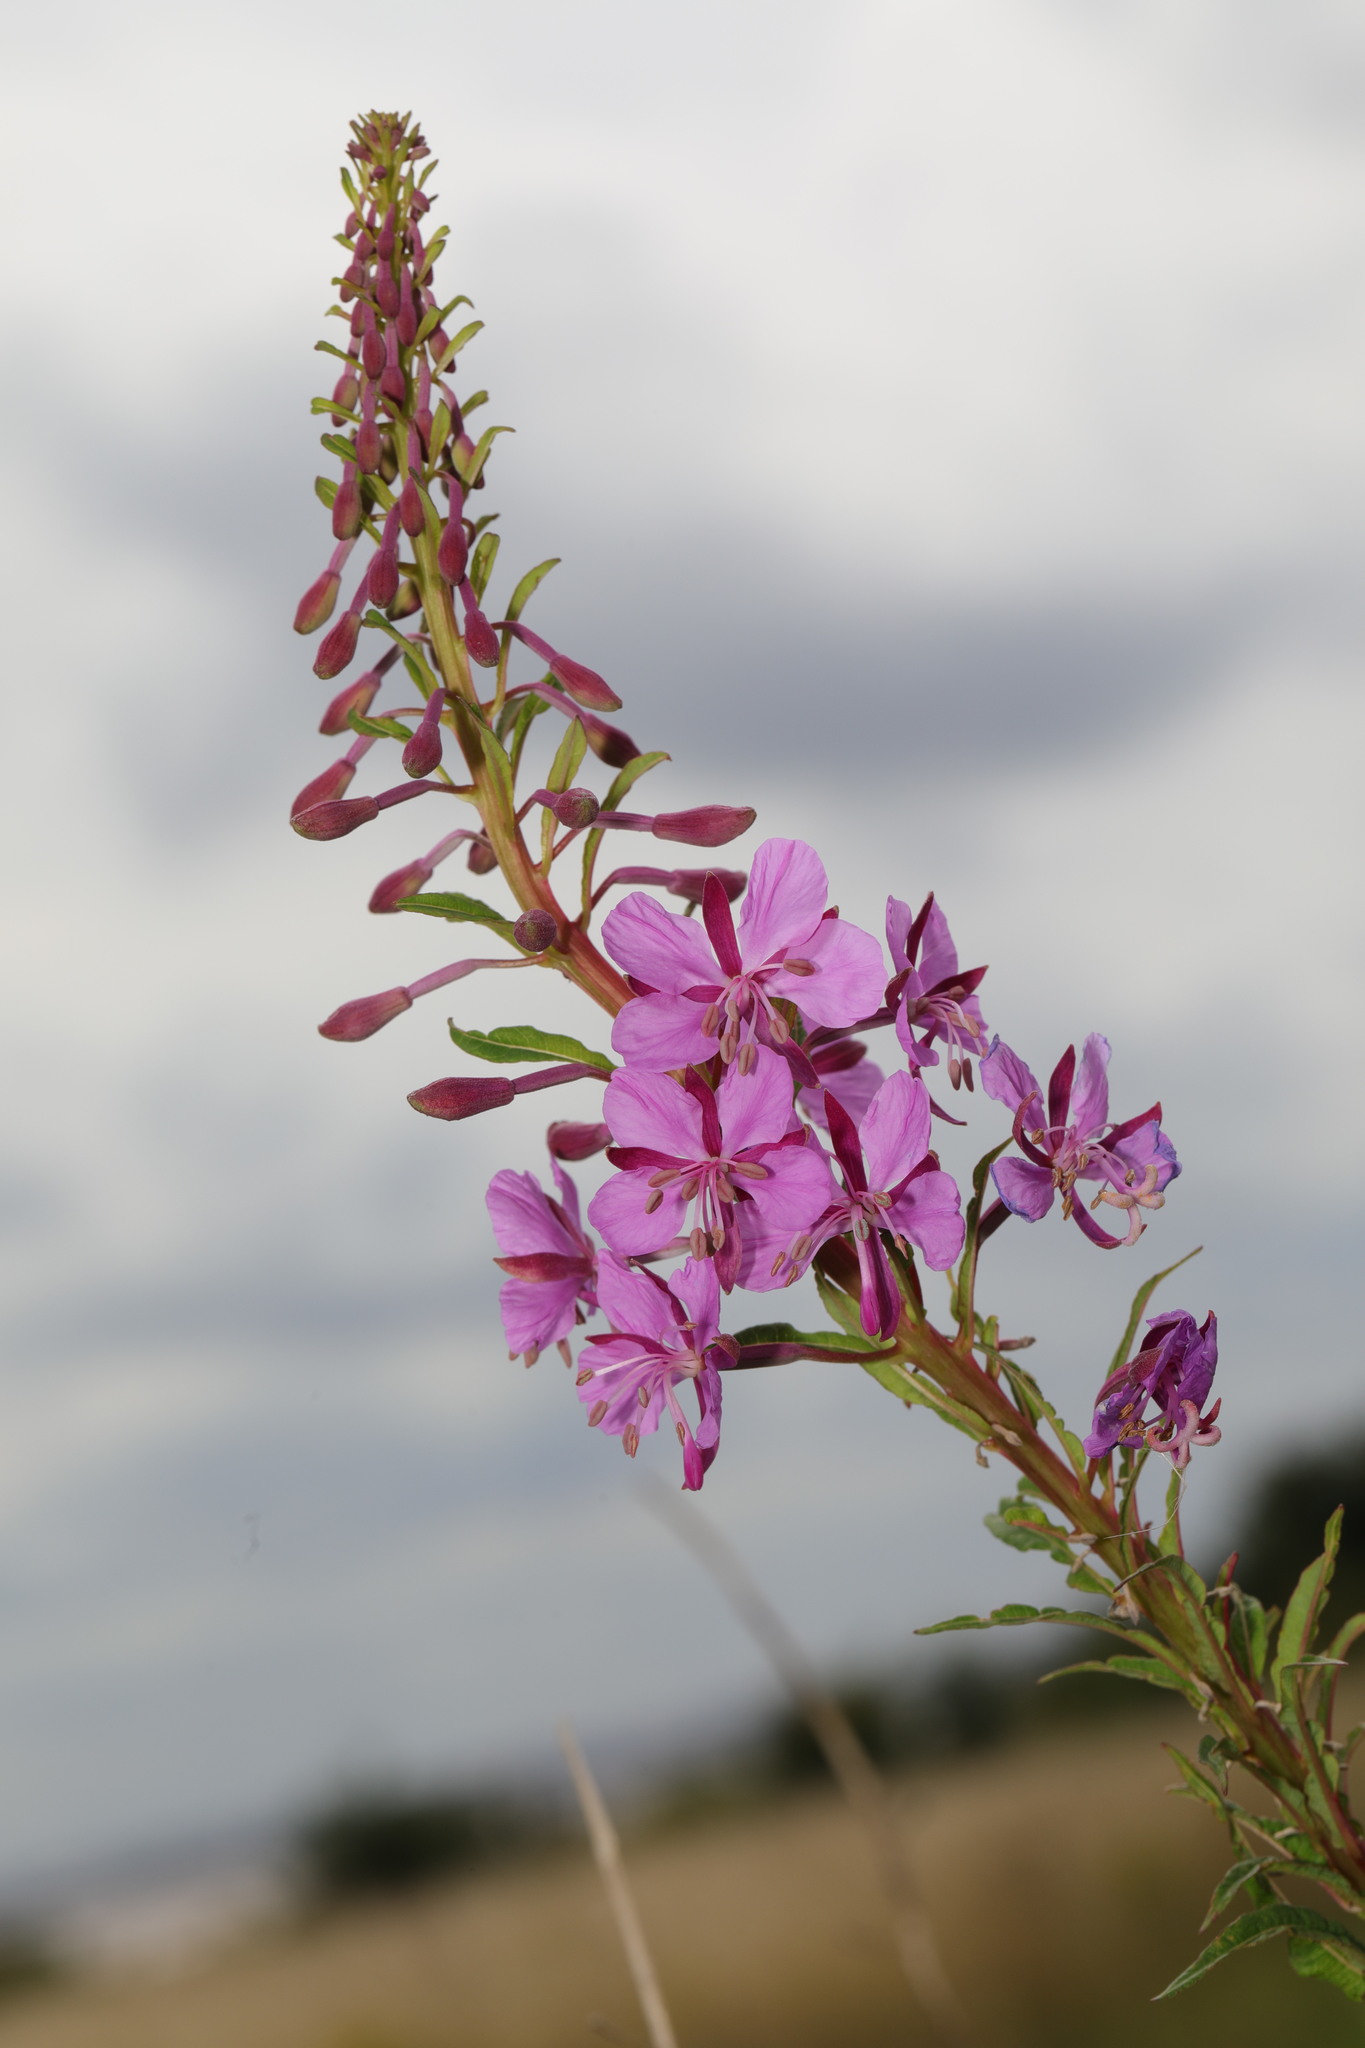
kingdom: Plantae
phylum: Tracheophyta
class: Magnoliopsida
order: Myrtales
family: Onagraceae
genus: Chamaenerion
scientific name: Chamaenerion angustifolium
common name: Fireweed
